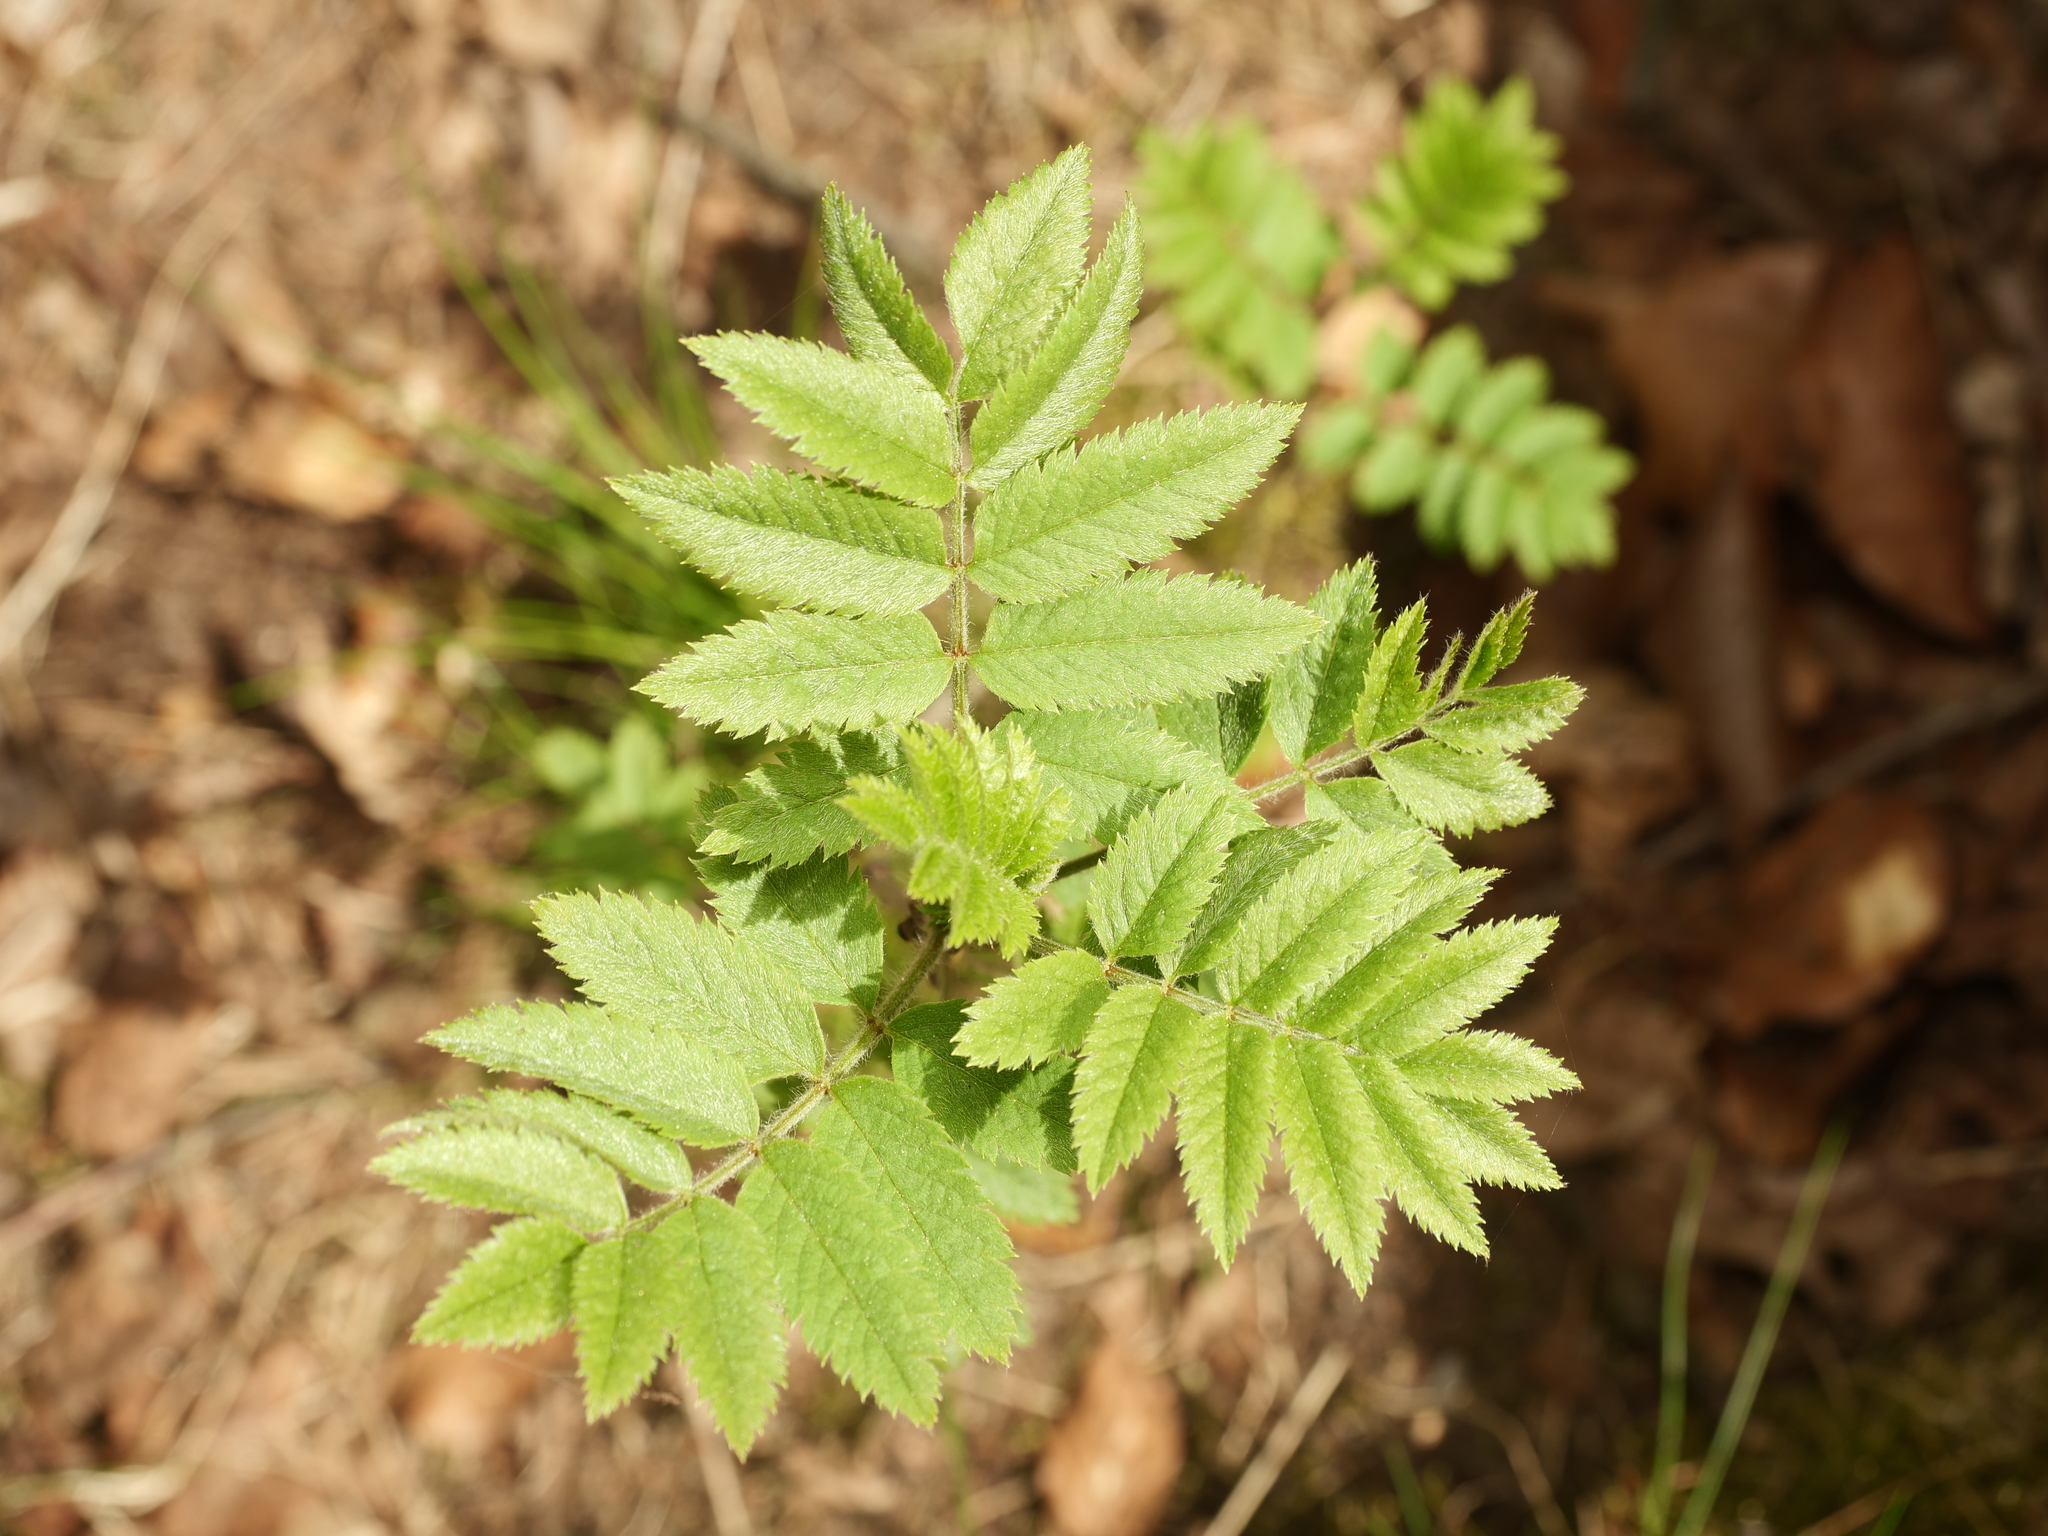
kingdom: Plantae
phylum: Tracheophyta
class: Magnoliopsida
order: Rosales
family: Rosaceae
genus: Sorbus
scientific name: Sorbus aucuparia
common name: Rowan
